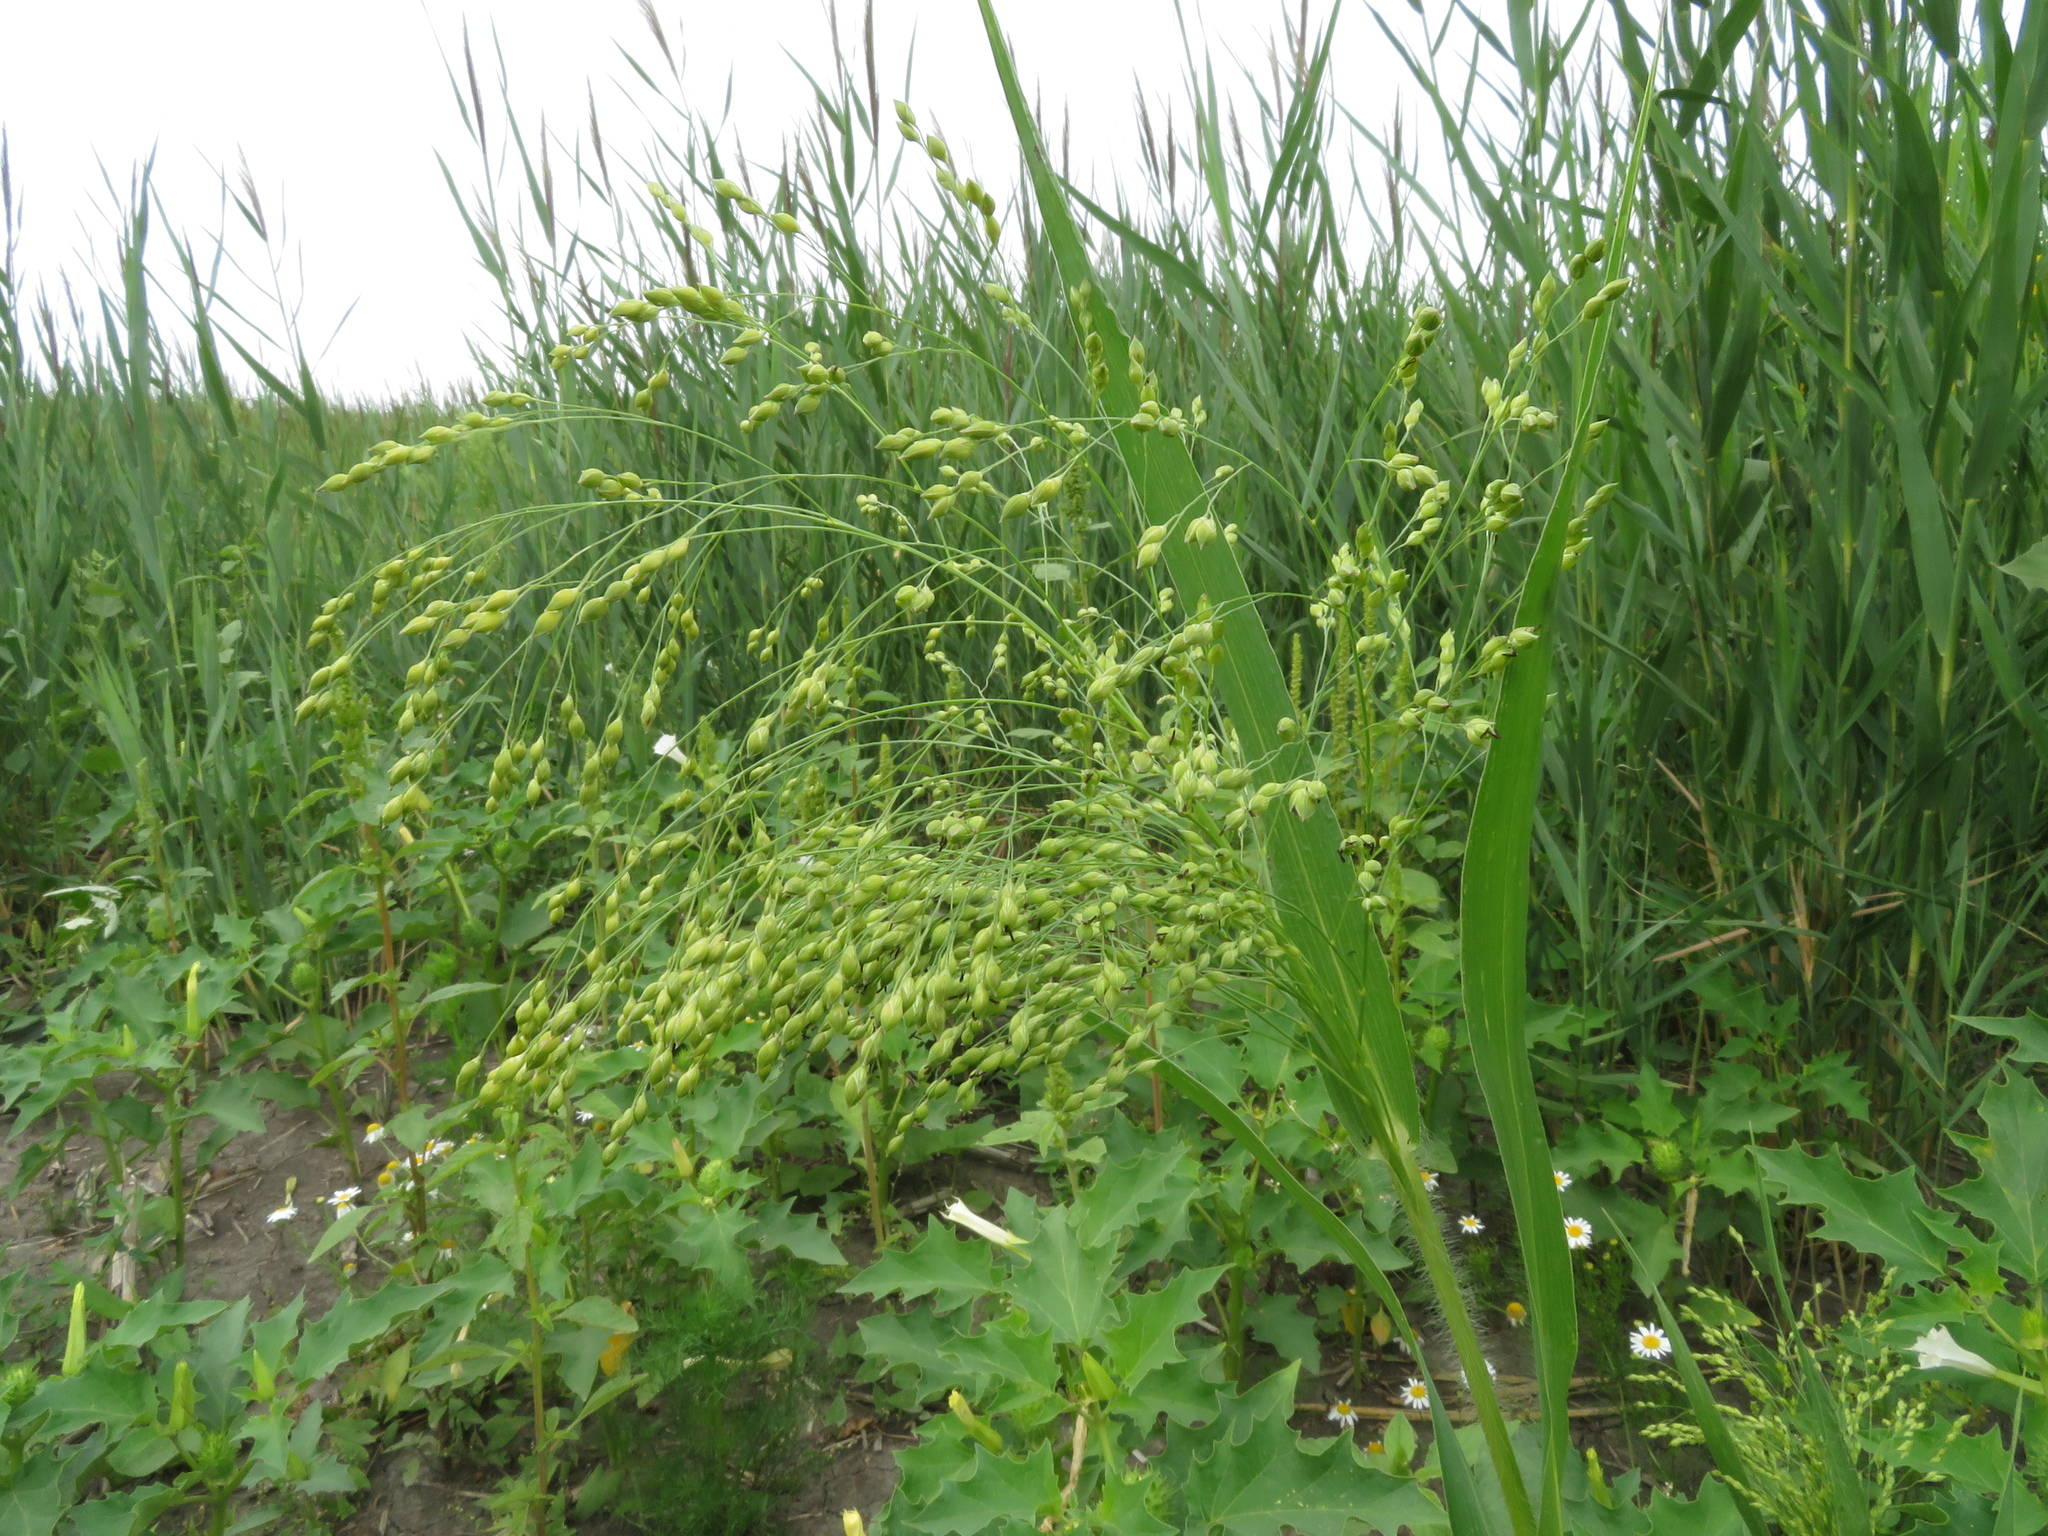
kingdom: Plantae
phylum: Tracheophyta
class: Liliopsida
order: Poales
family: Poaceae
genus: Panicum
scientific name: Panicum miliaceum
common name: Common millet
